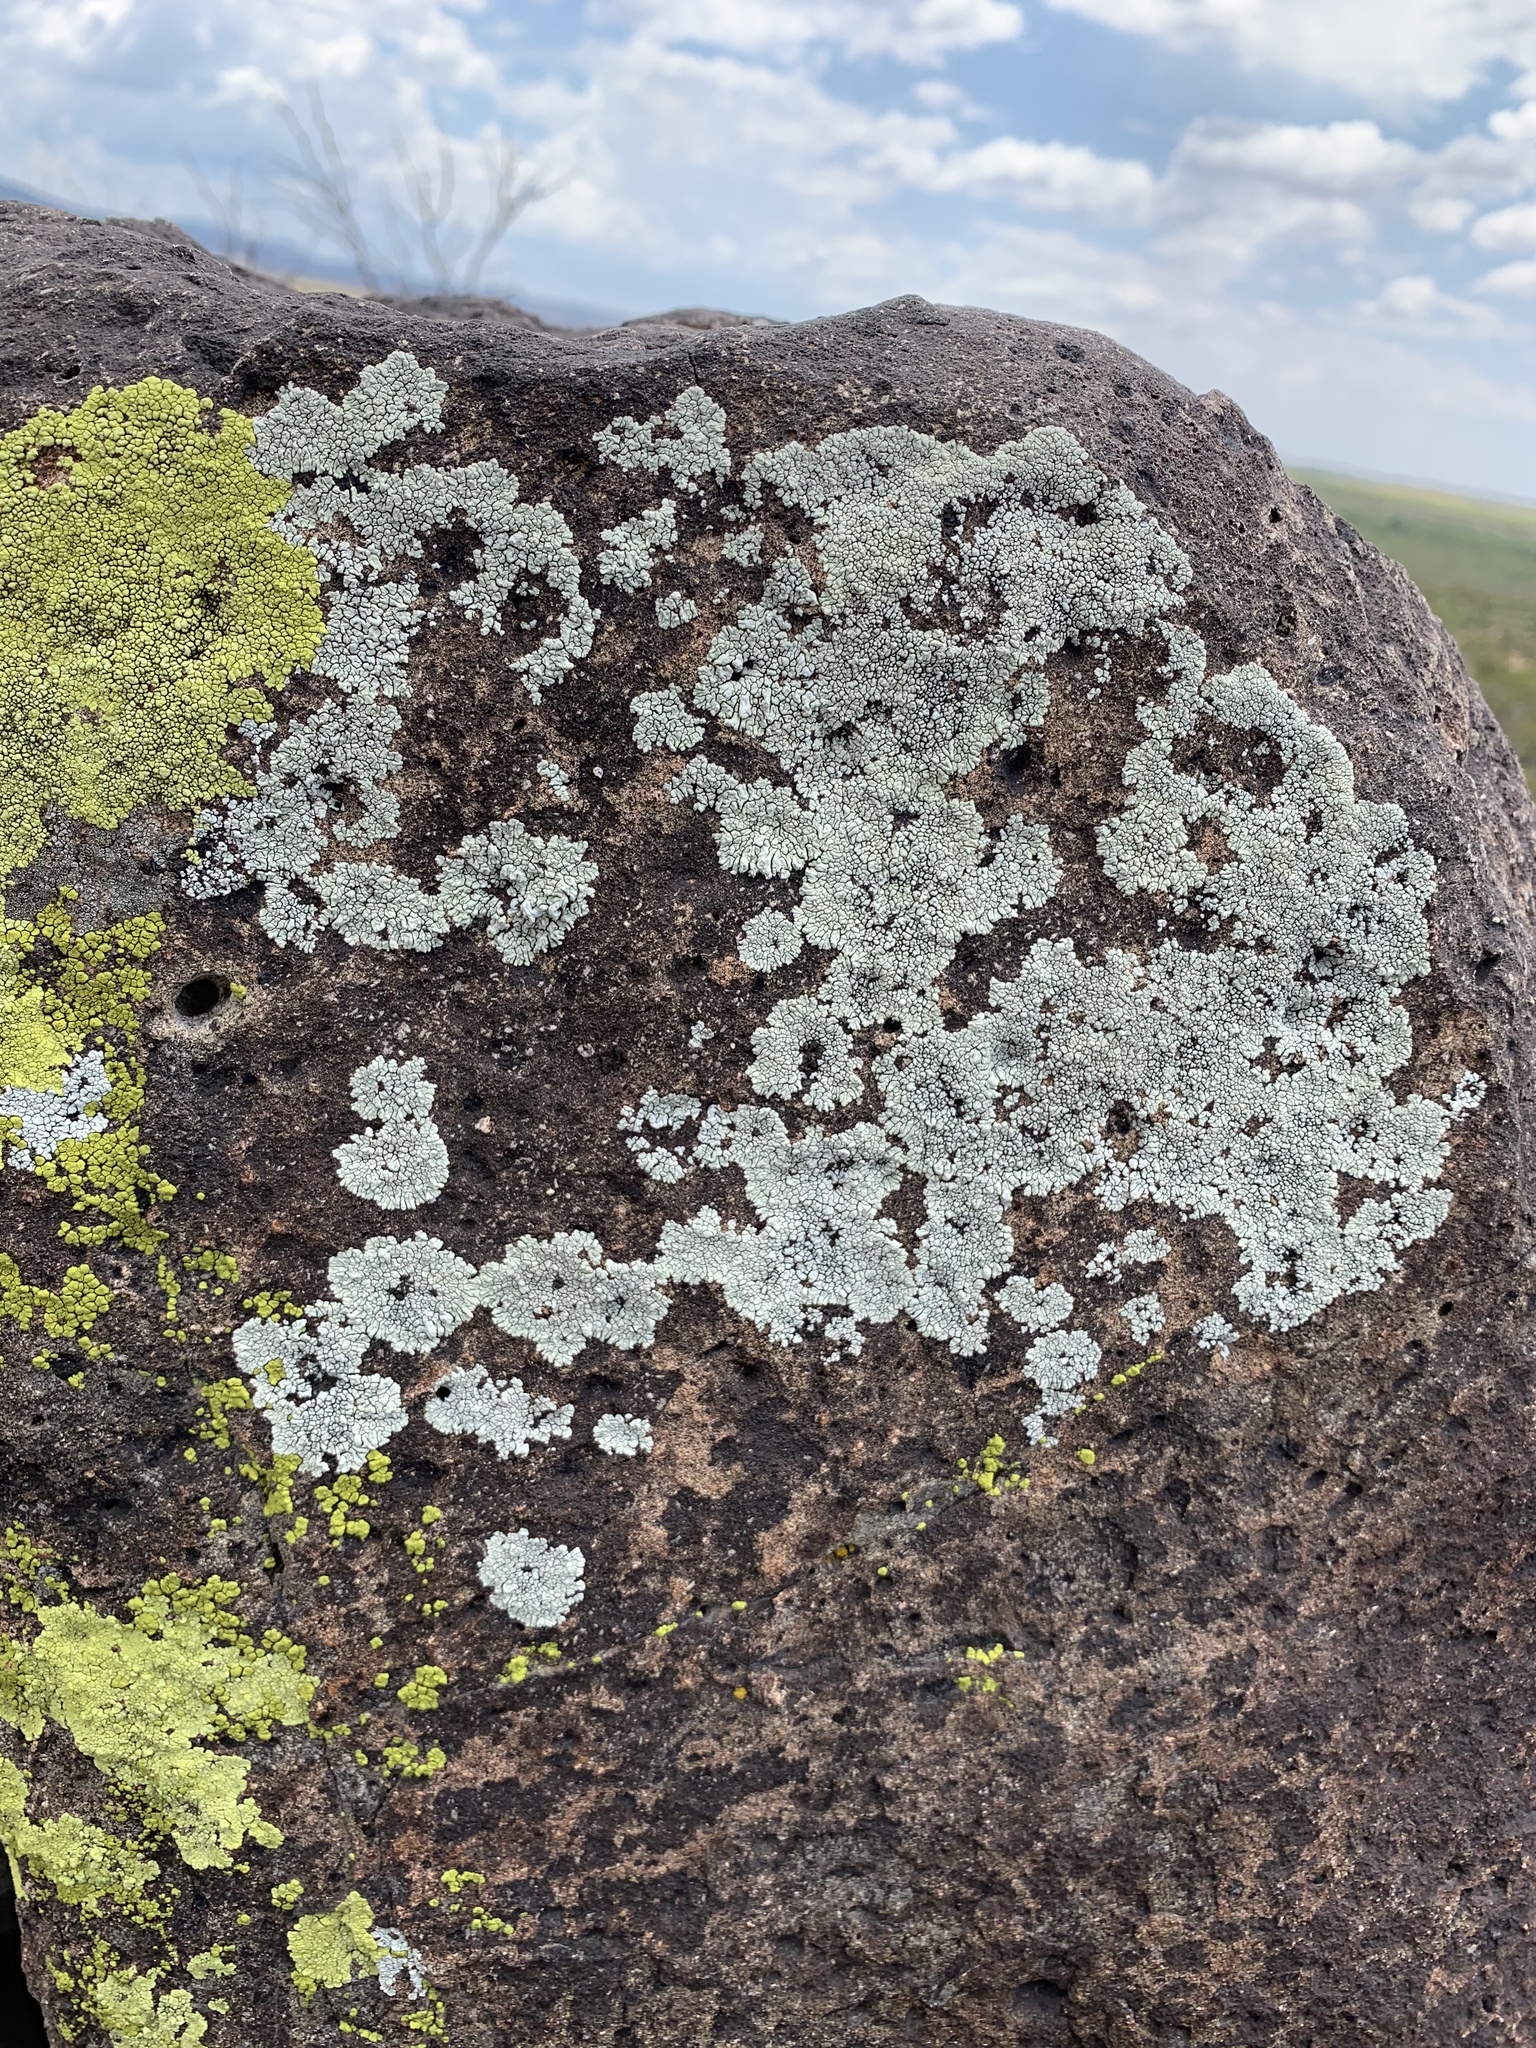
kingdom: Fungi
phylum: Ascomycota
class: Lecanoromycetes
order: Caliciales
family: Caliciaceae
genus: Dimelaena
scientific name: Dimelaena radiata
